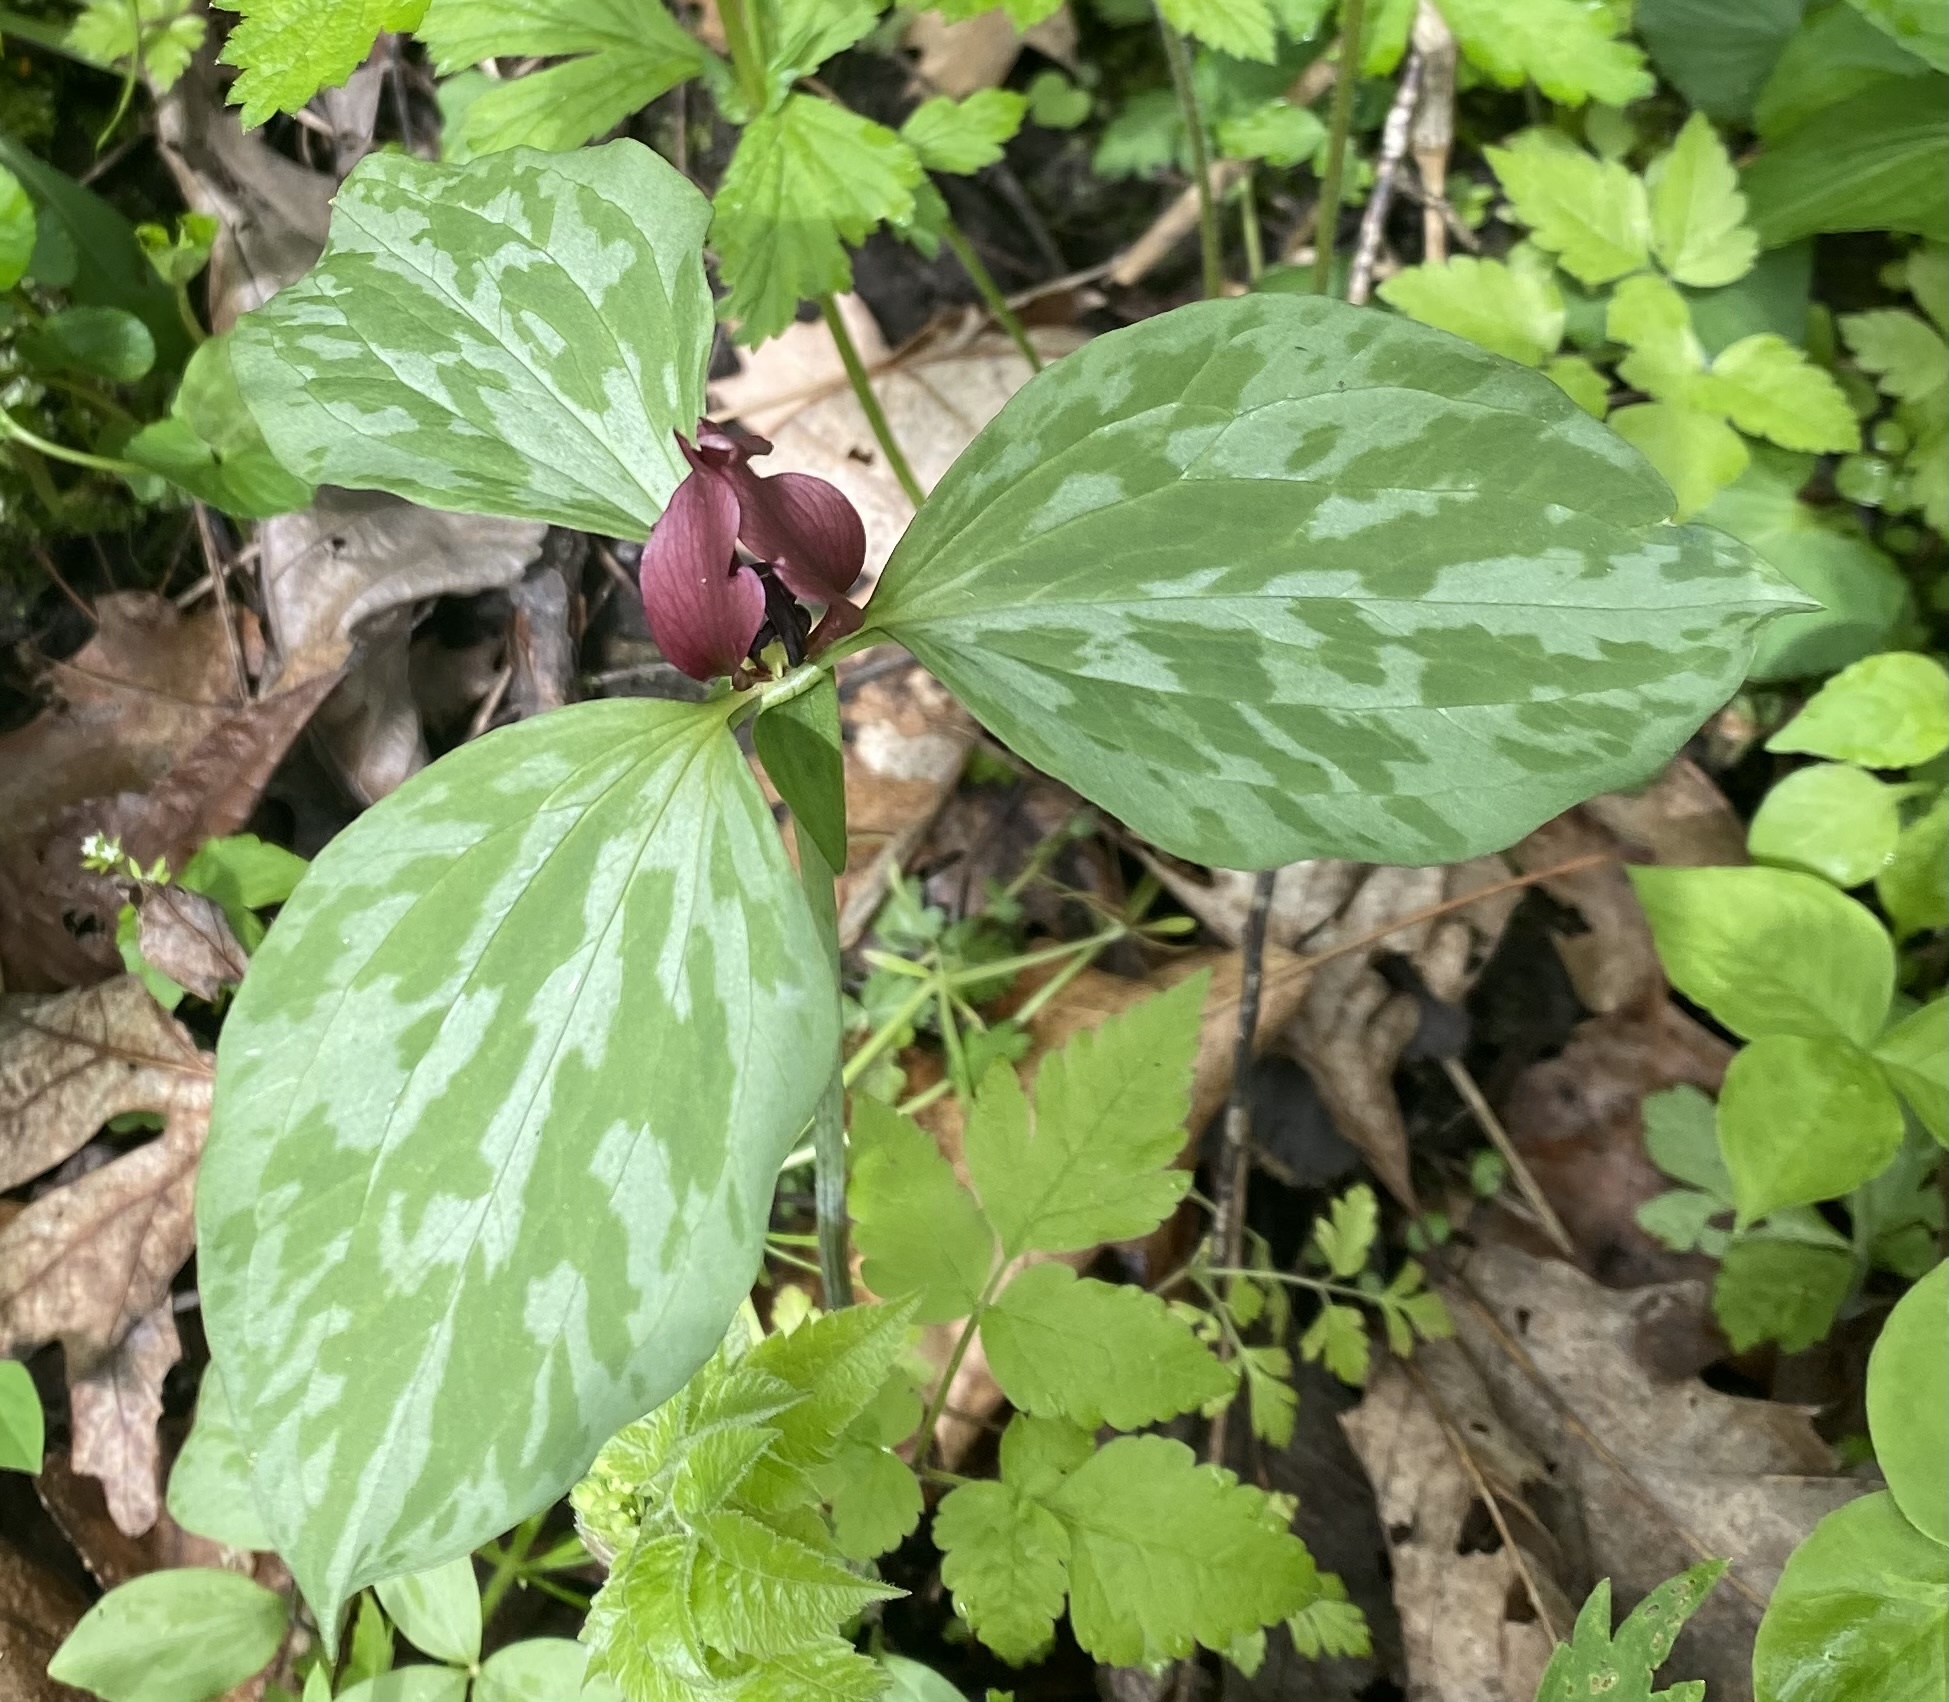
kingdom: Plantae
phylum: Tracheophyta
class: Liliopsida
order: Liliales
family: Melanthiaceae
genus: Trillium
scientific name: Trillium recurvatum
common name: Bloody butcher
